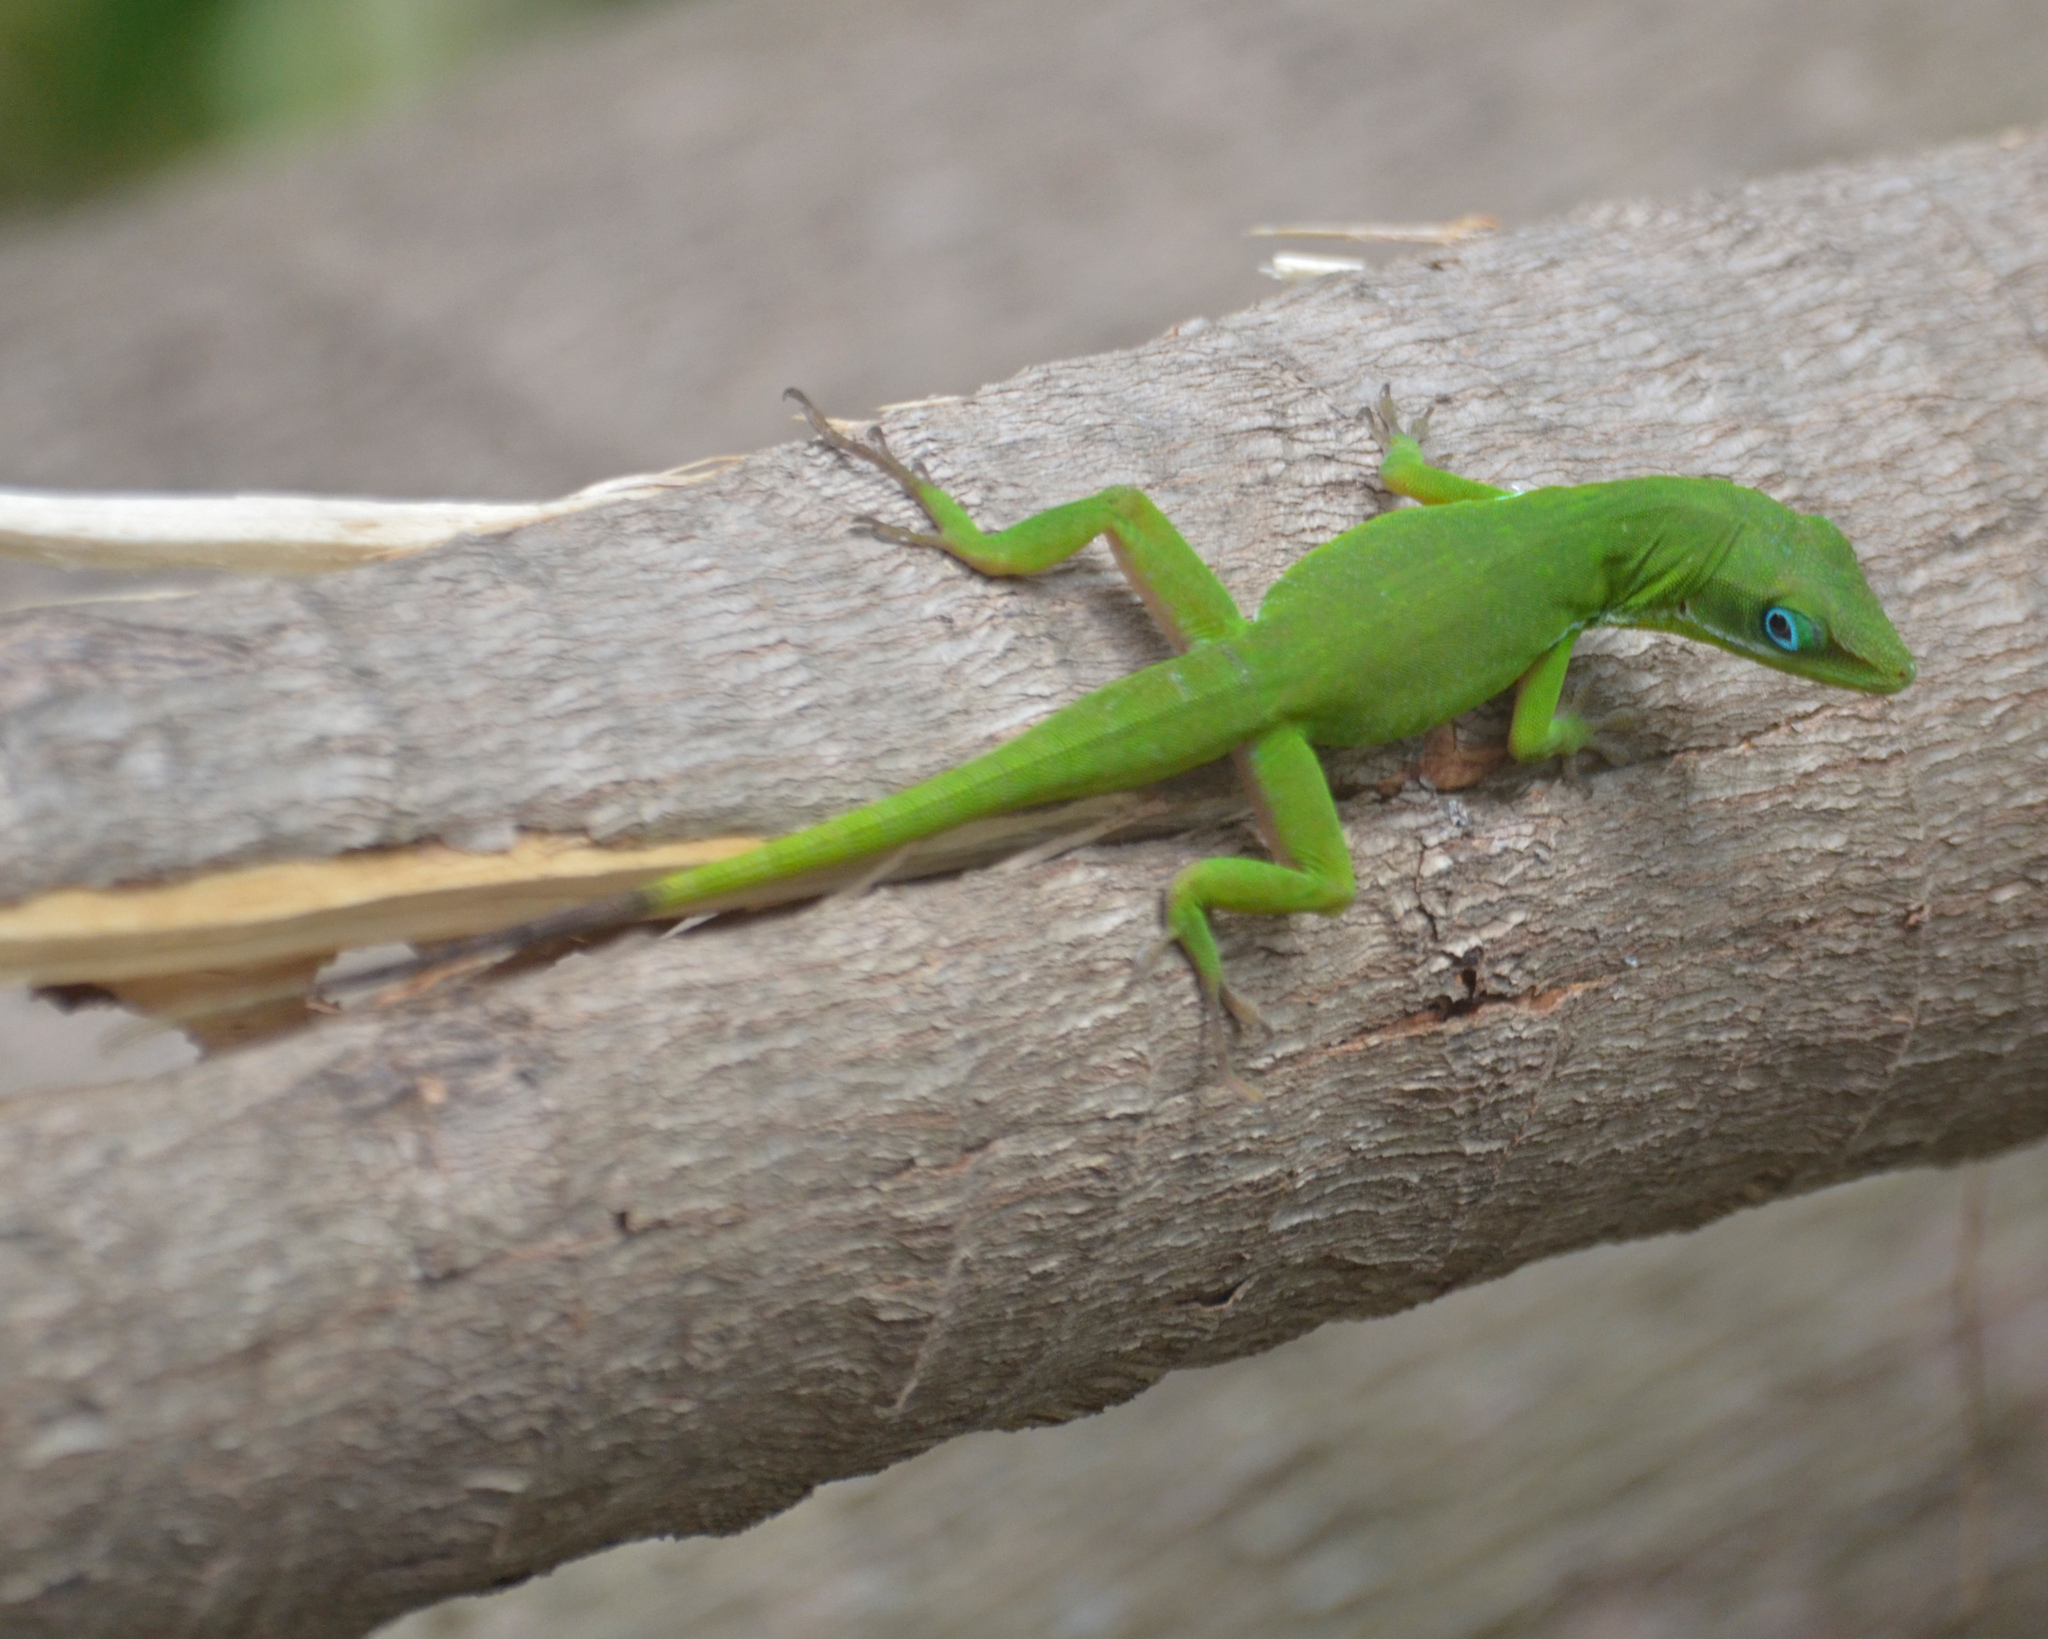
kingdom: Animalia
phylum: Chordata
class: Squamata
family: Dactyloidae
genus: Anolis
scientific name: Anolis viridius
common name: Barahona green anole
